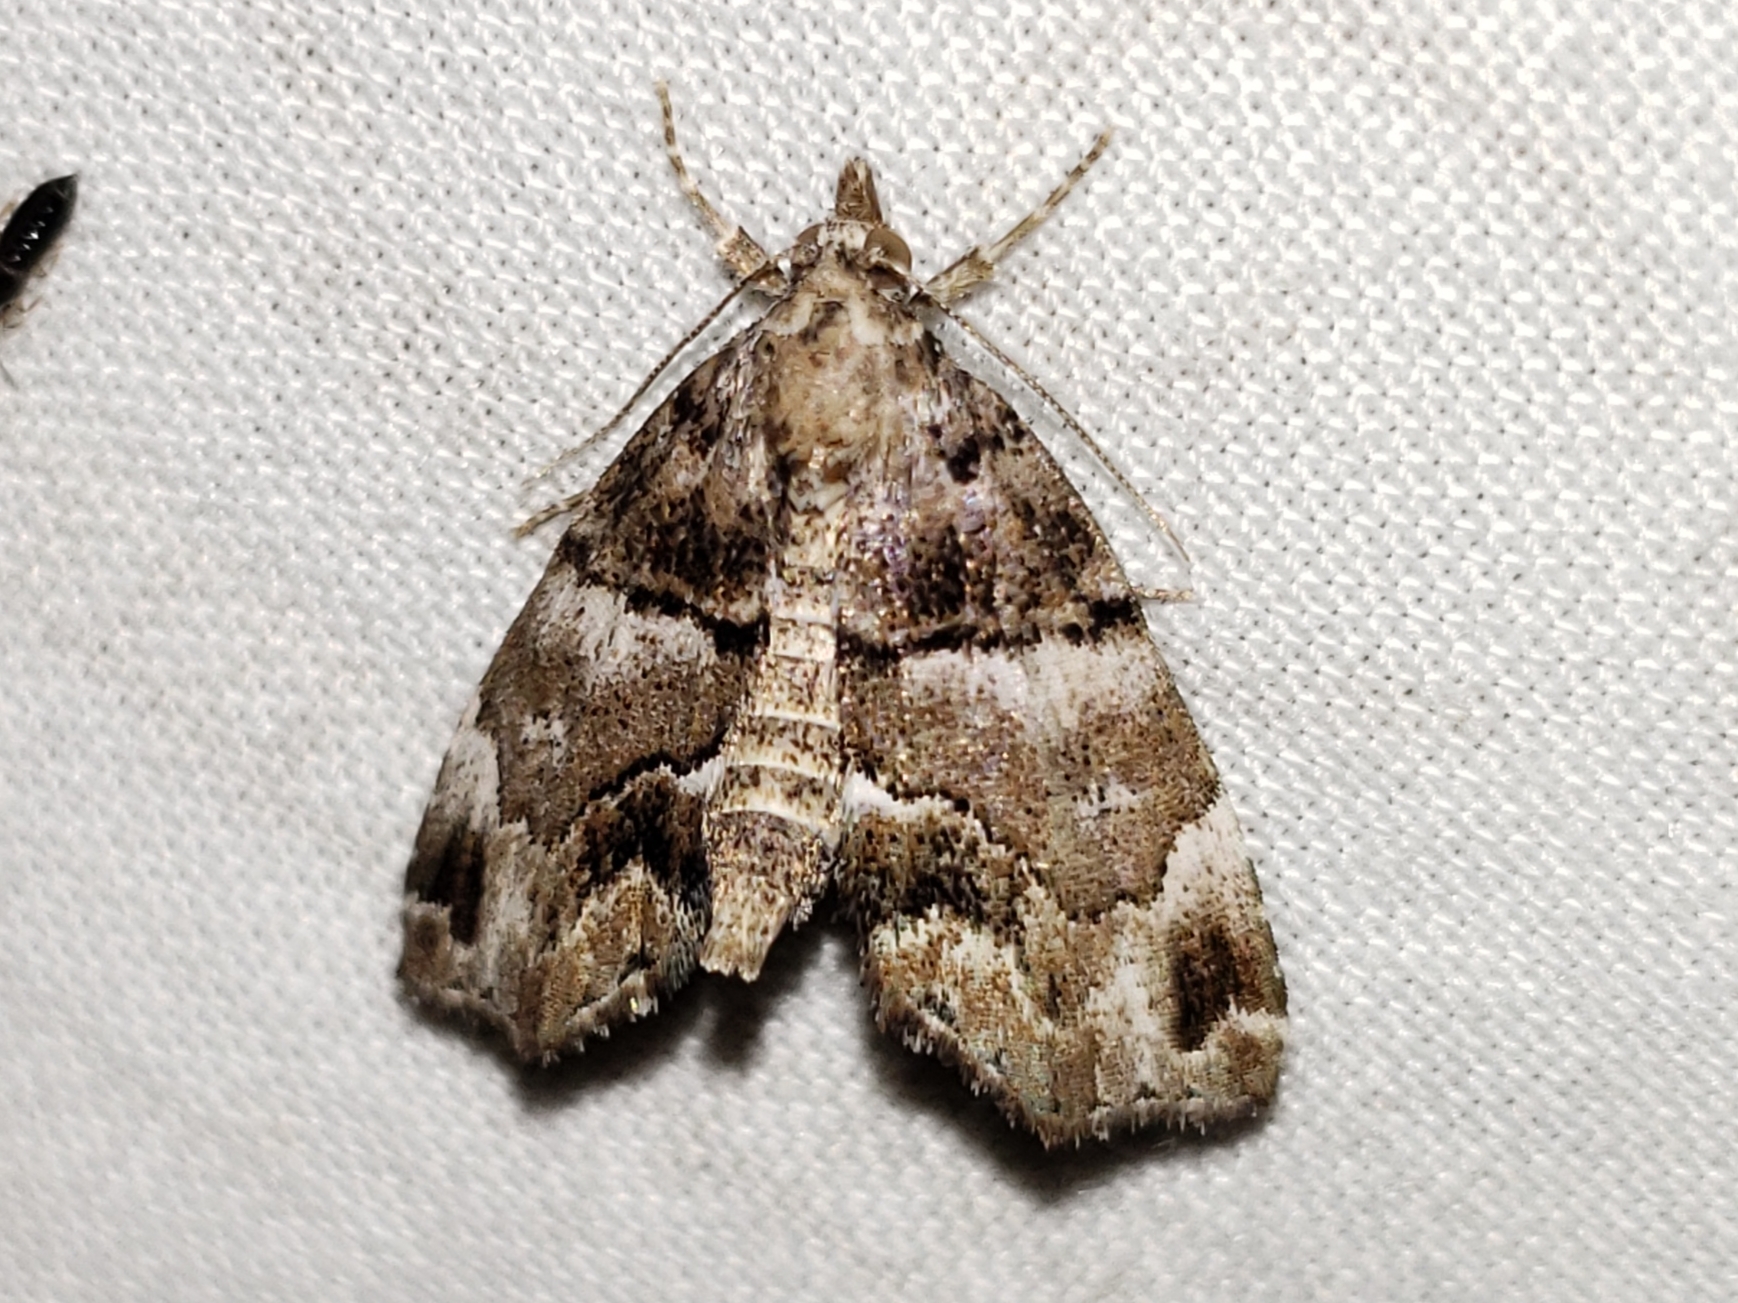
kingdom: Animalia
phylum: Arthropoda
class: Insecta
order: Lepidoptera
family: Erebidae
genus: Cutina
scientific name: Cutina distincta
